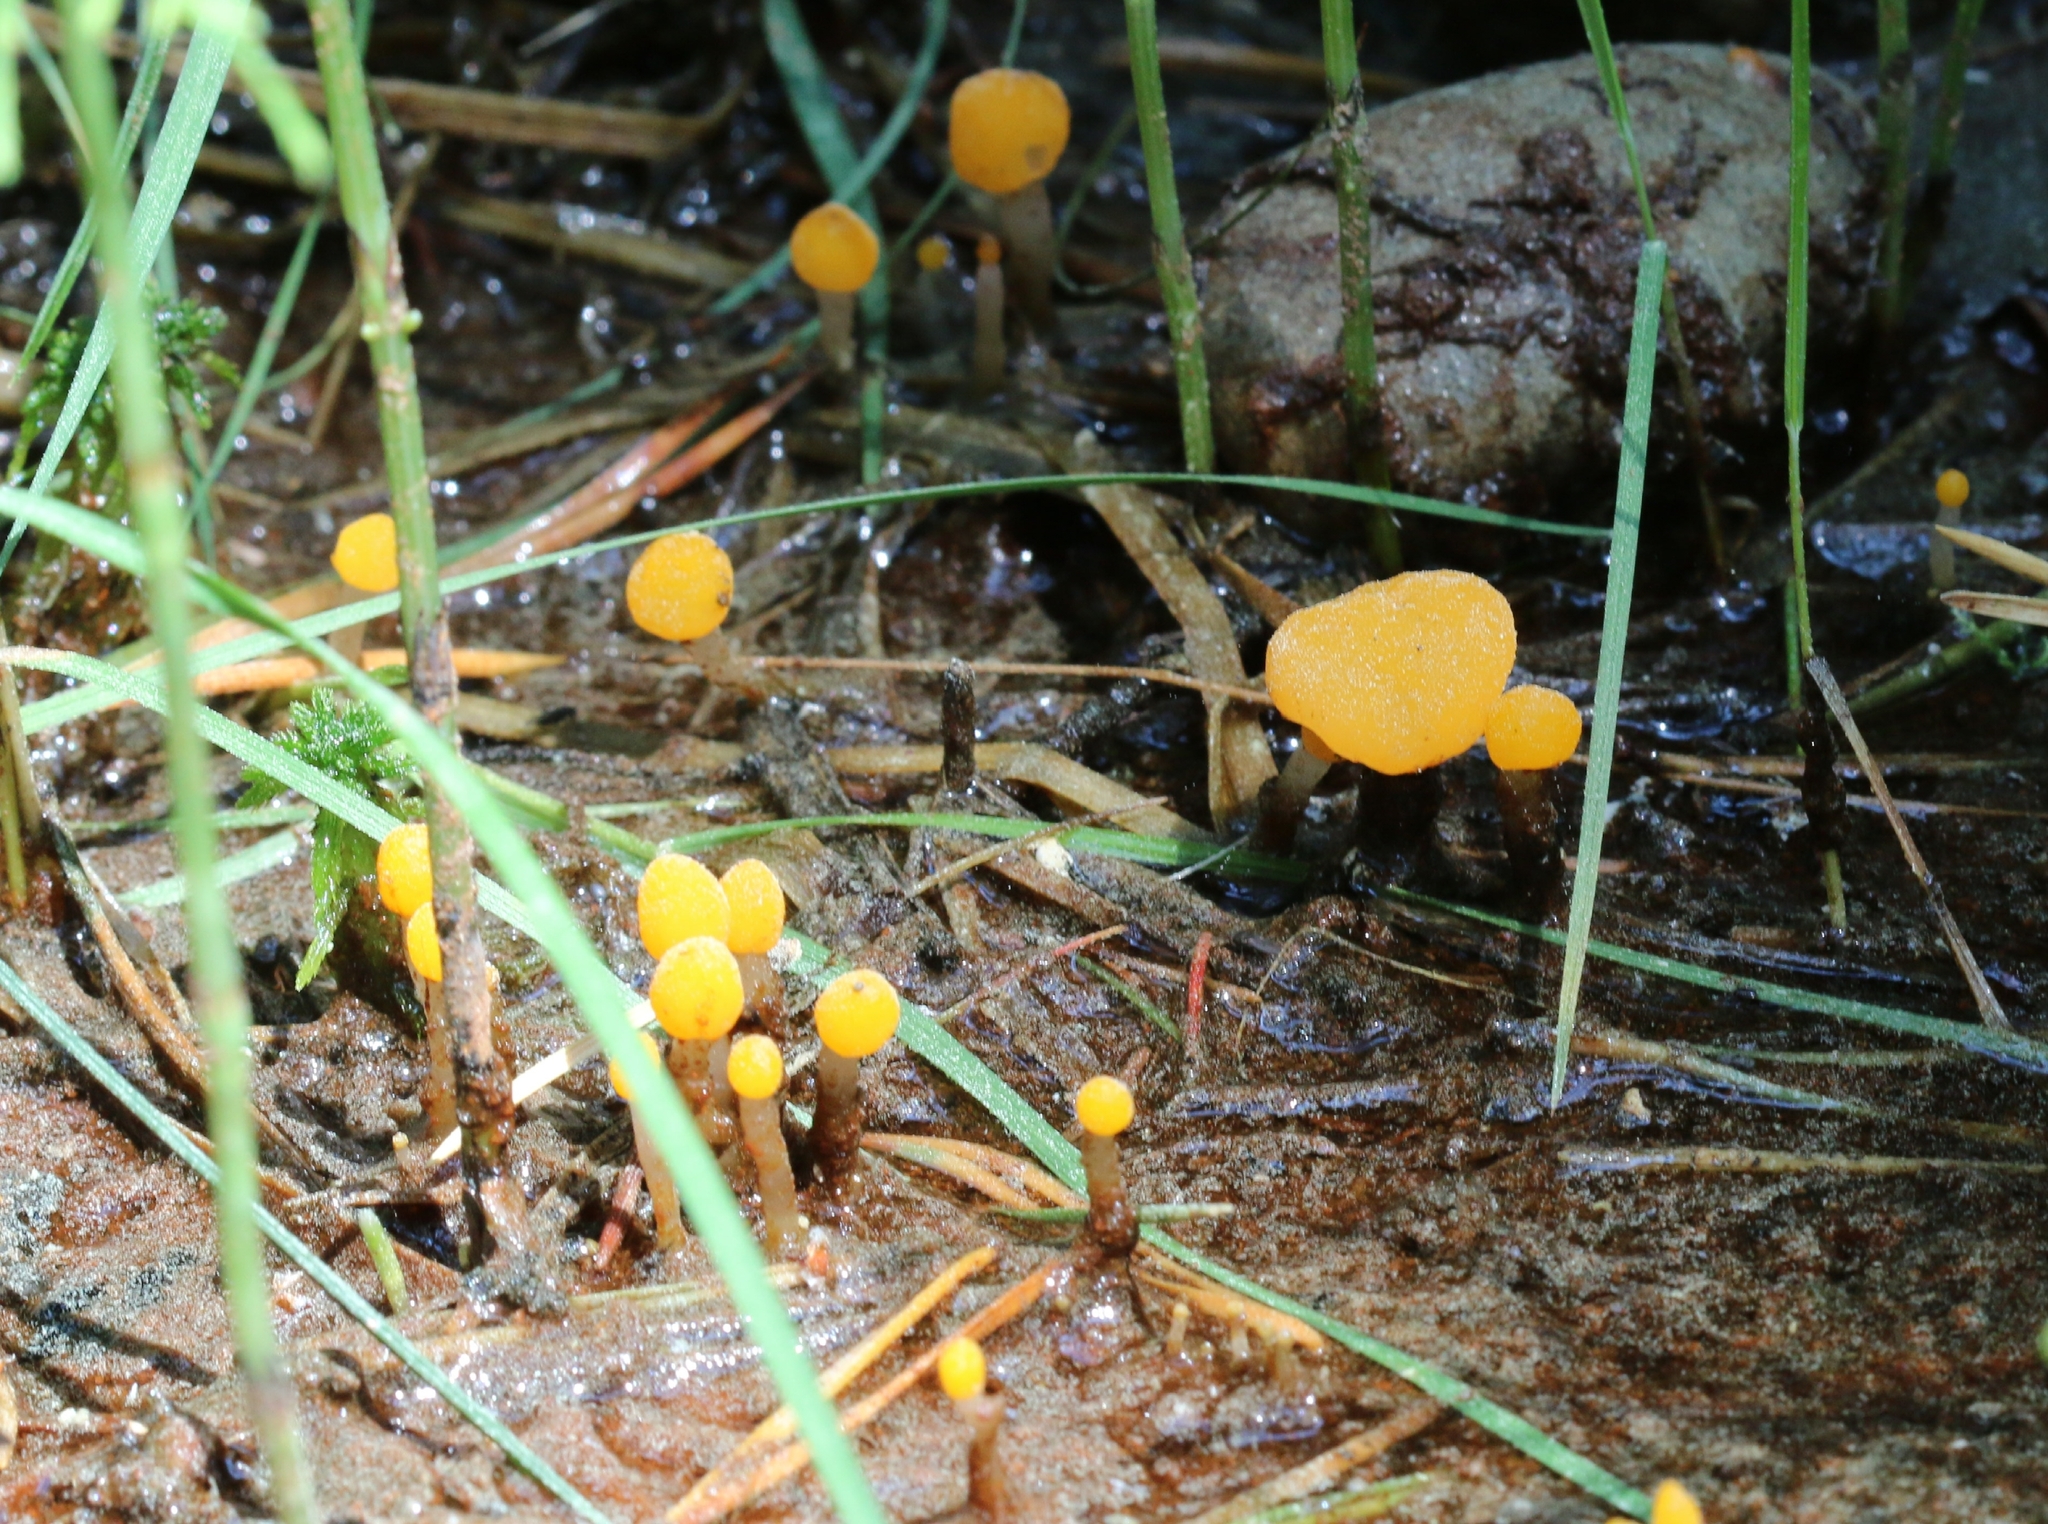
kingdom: Fungi
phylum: Ascomycota
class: Leotiomycetes
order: Helotiales
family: Cenangiaceae
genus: Mitrula
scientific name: Mitrula paludosa
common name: Bog beacon
